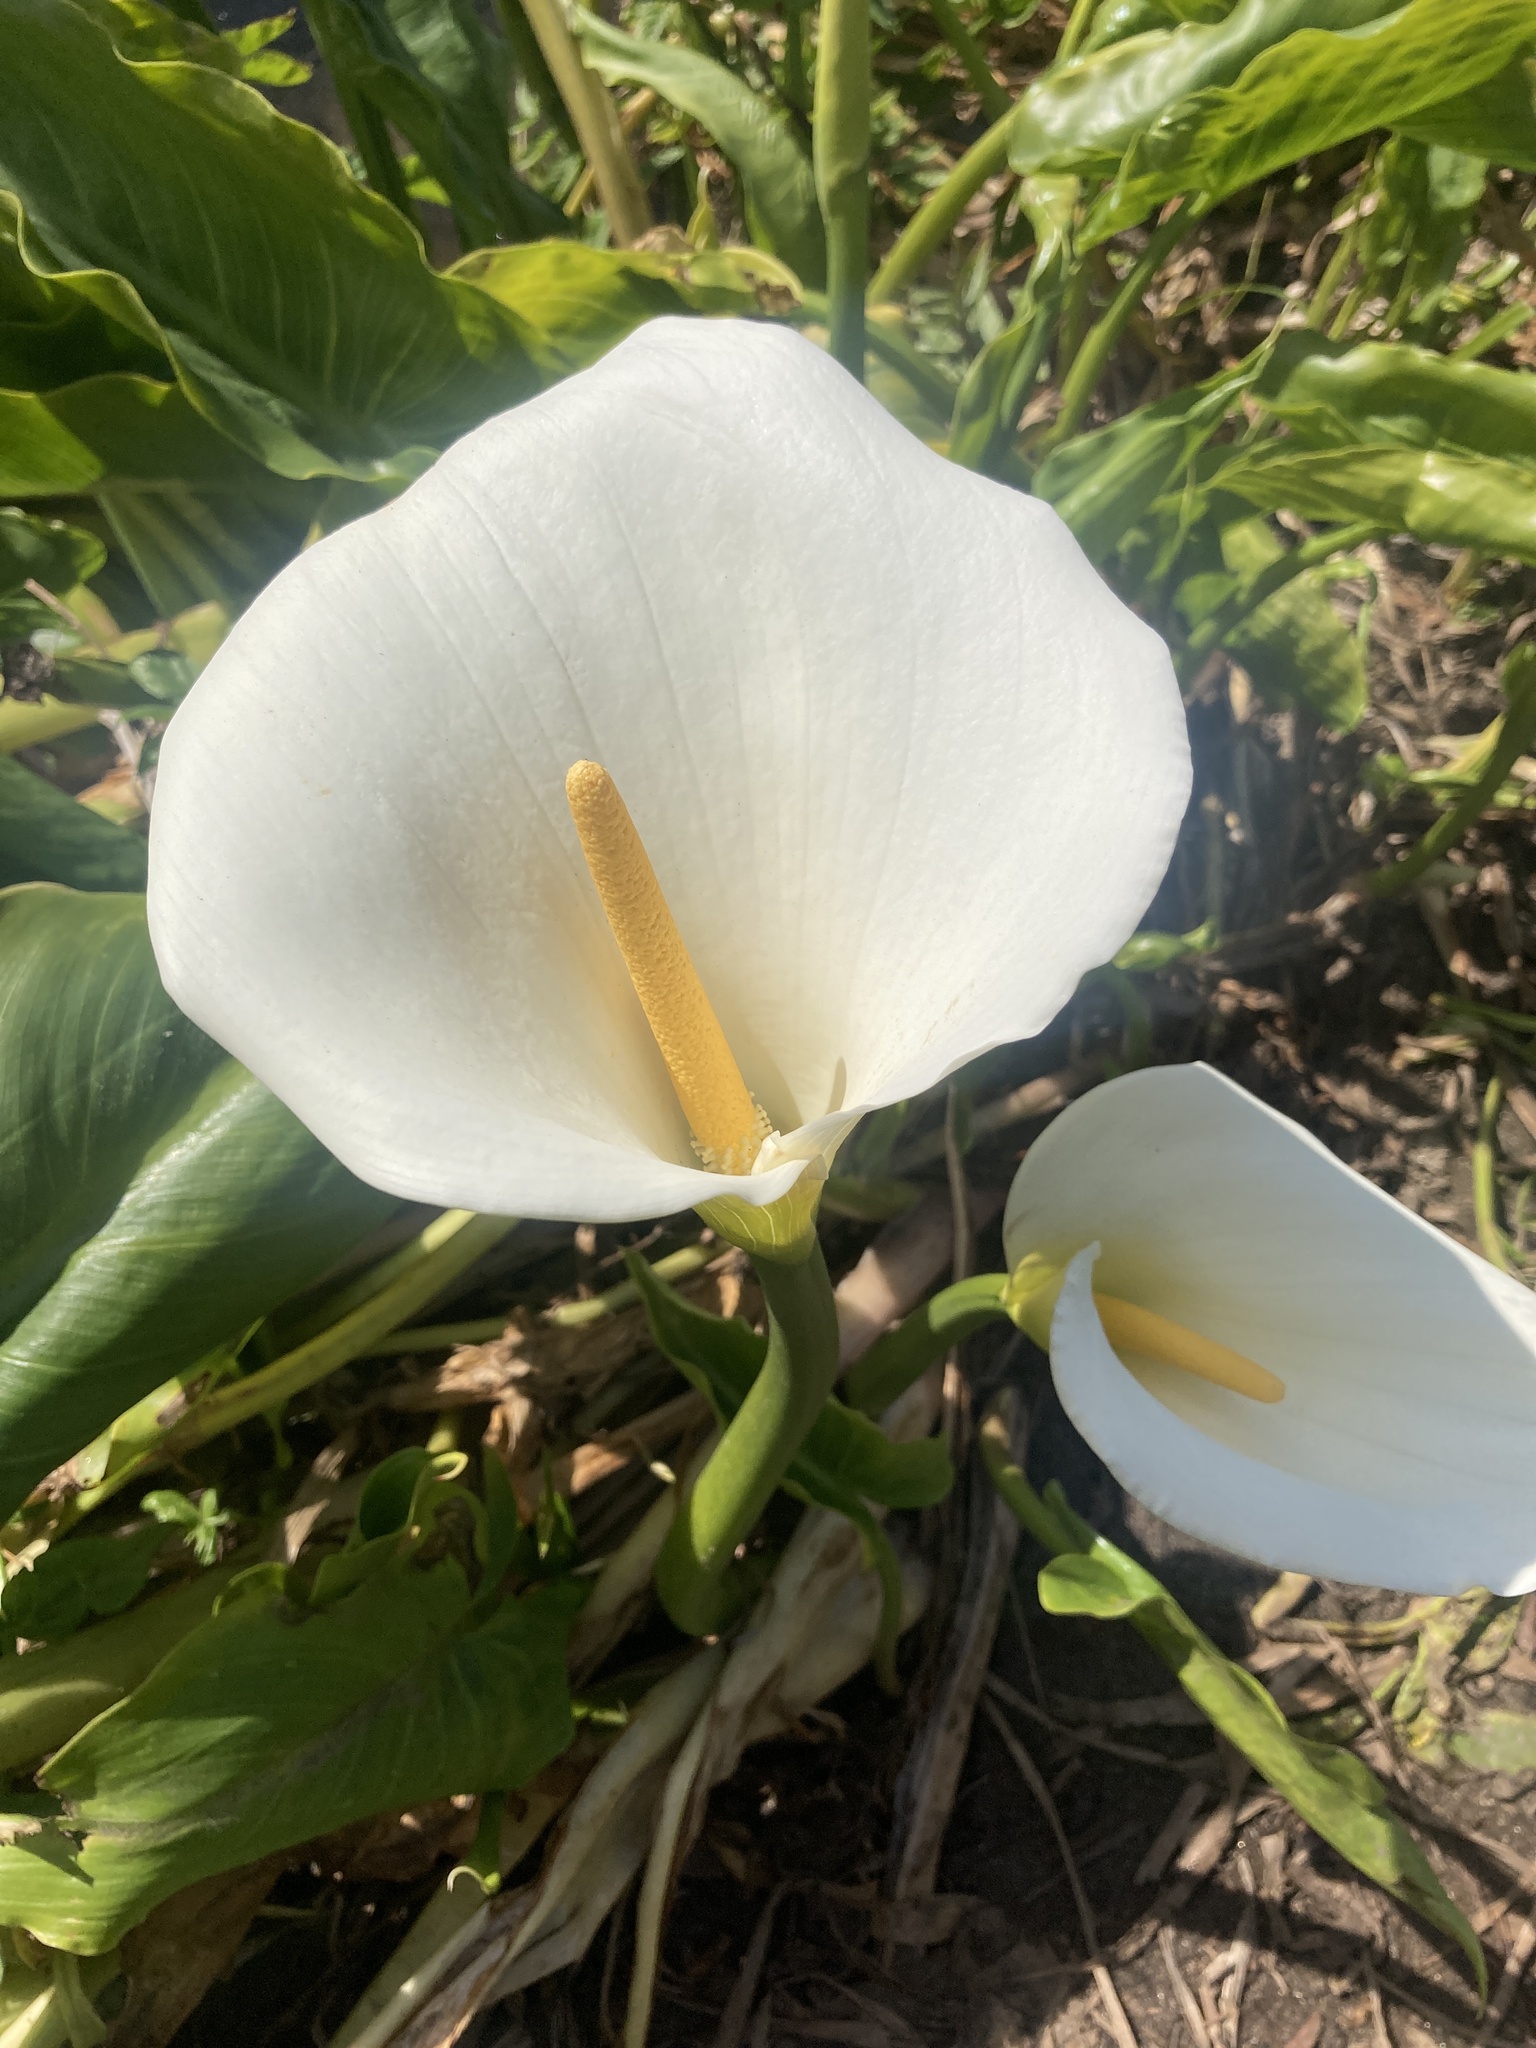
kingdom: Plantae
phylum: Tracheophyta
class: Liliopsida
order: Alismatales
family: Araceae
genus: Zantedeschia
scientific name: Zantedeschia aethiopica
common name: Altar-lily
